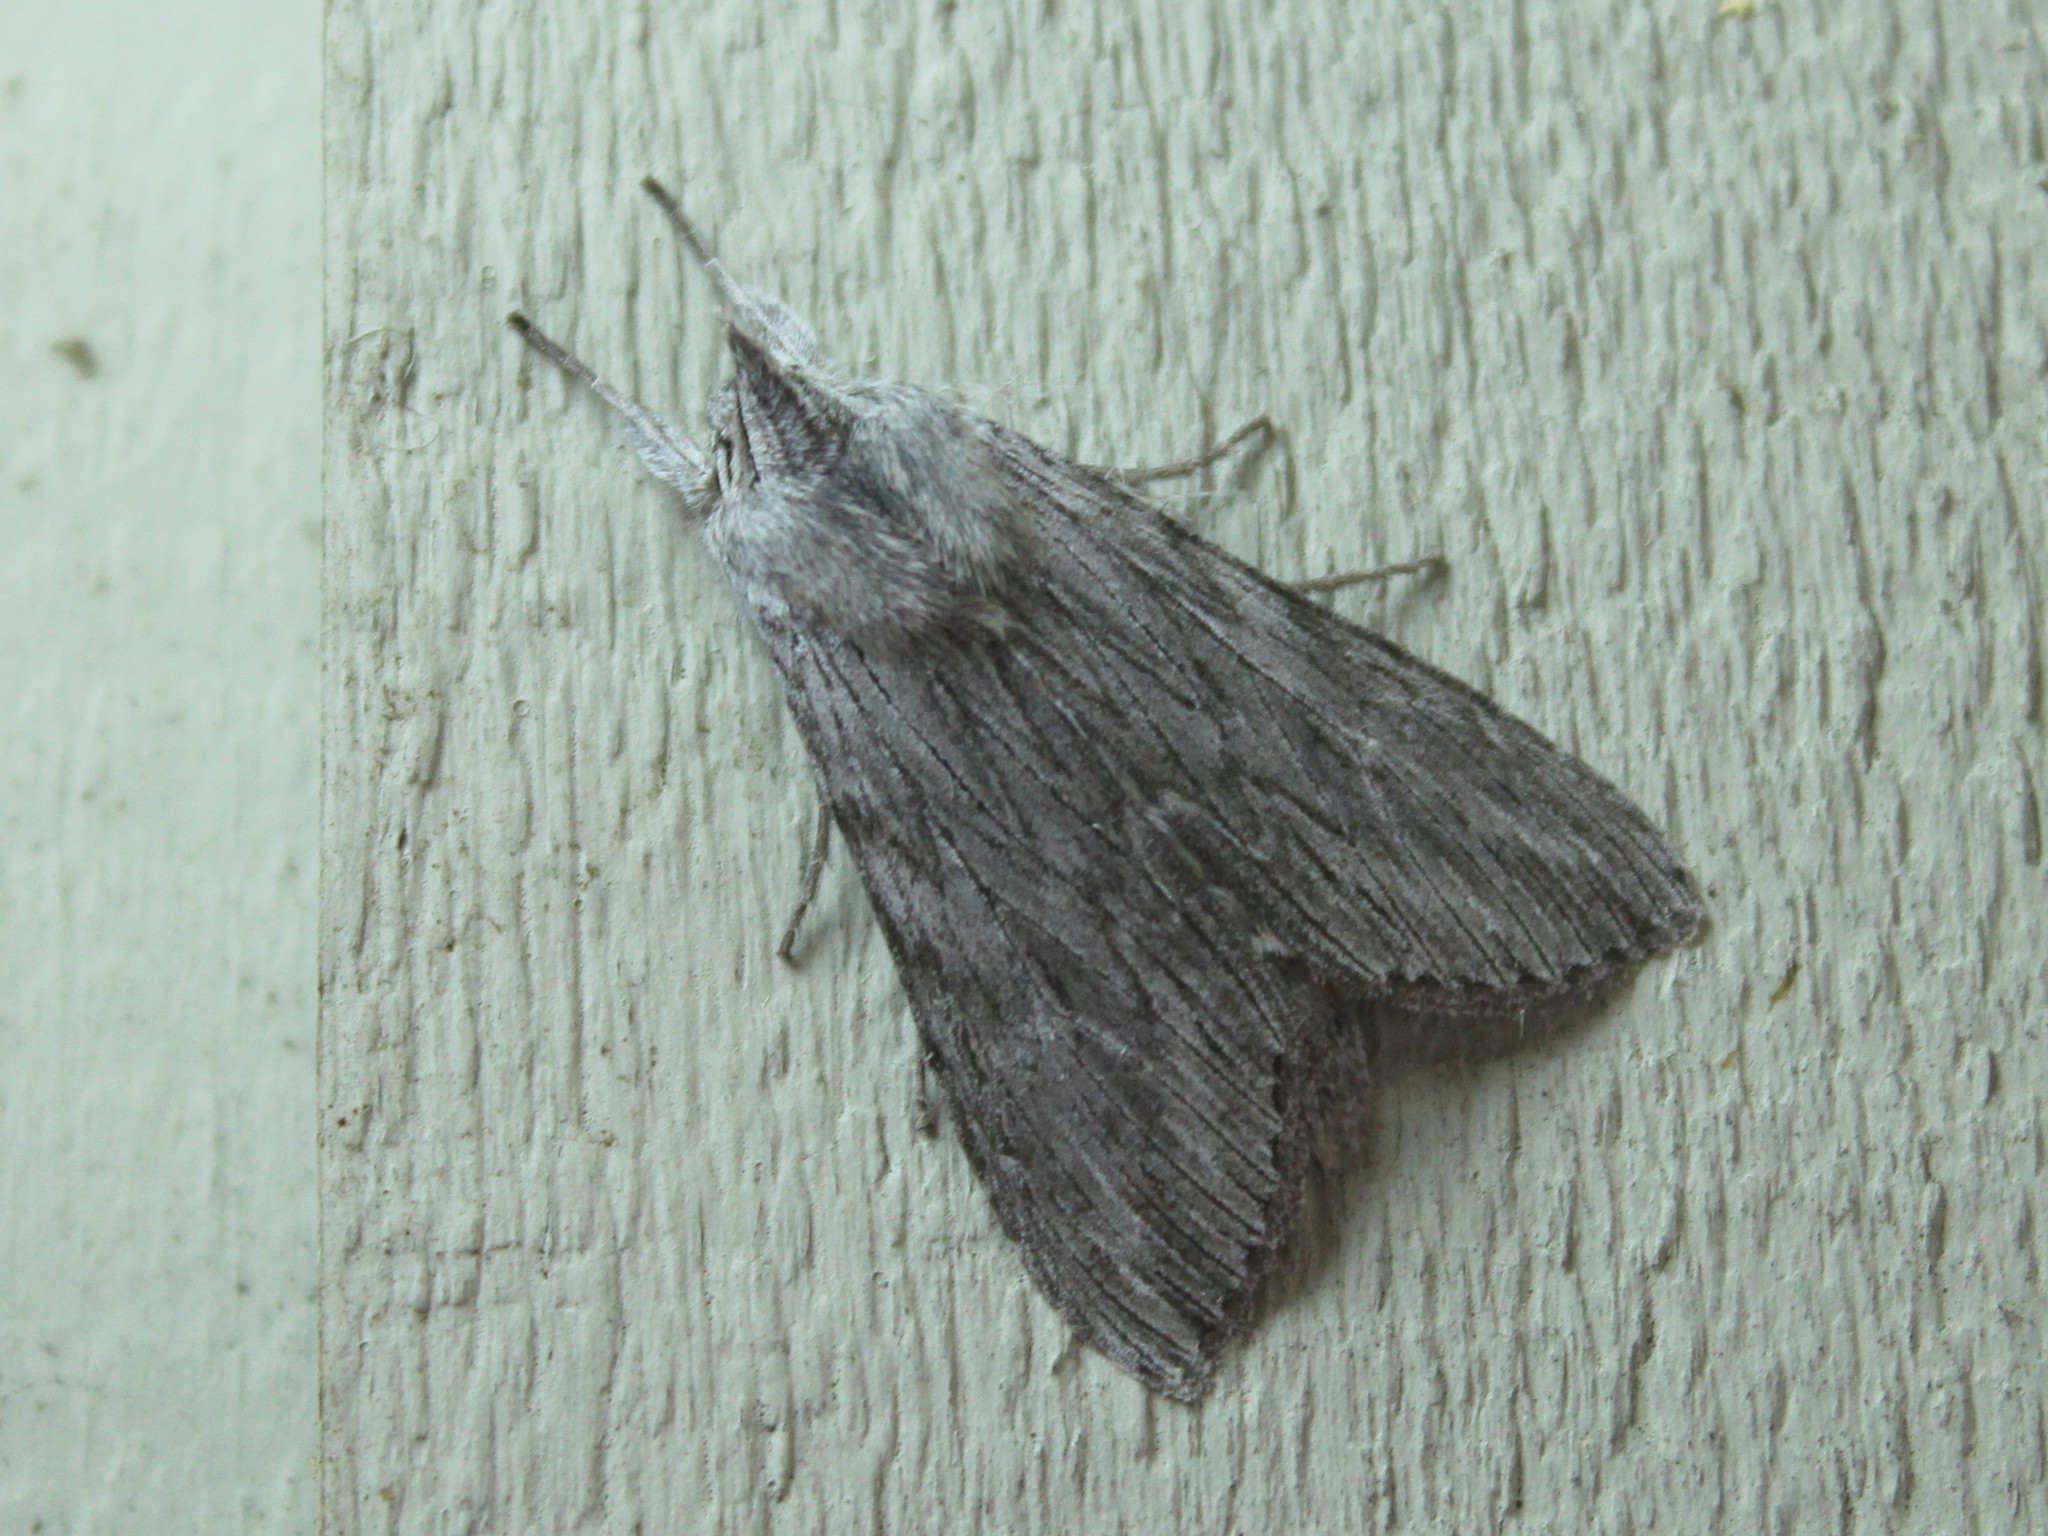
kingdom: Animalia
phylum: Arthropoda
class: Insecta
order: Lepidoptera
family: Noctuidae
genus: Cucullia
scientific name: Cucullia intermedia
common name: Goldenrod cutworm
